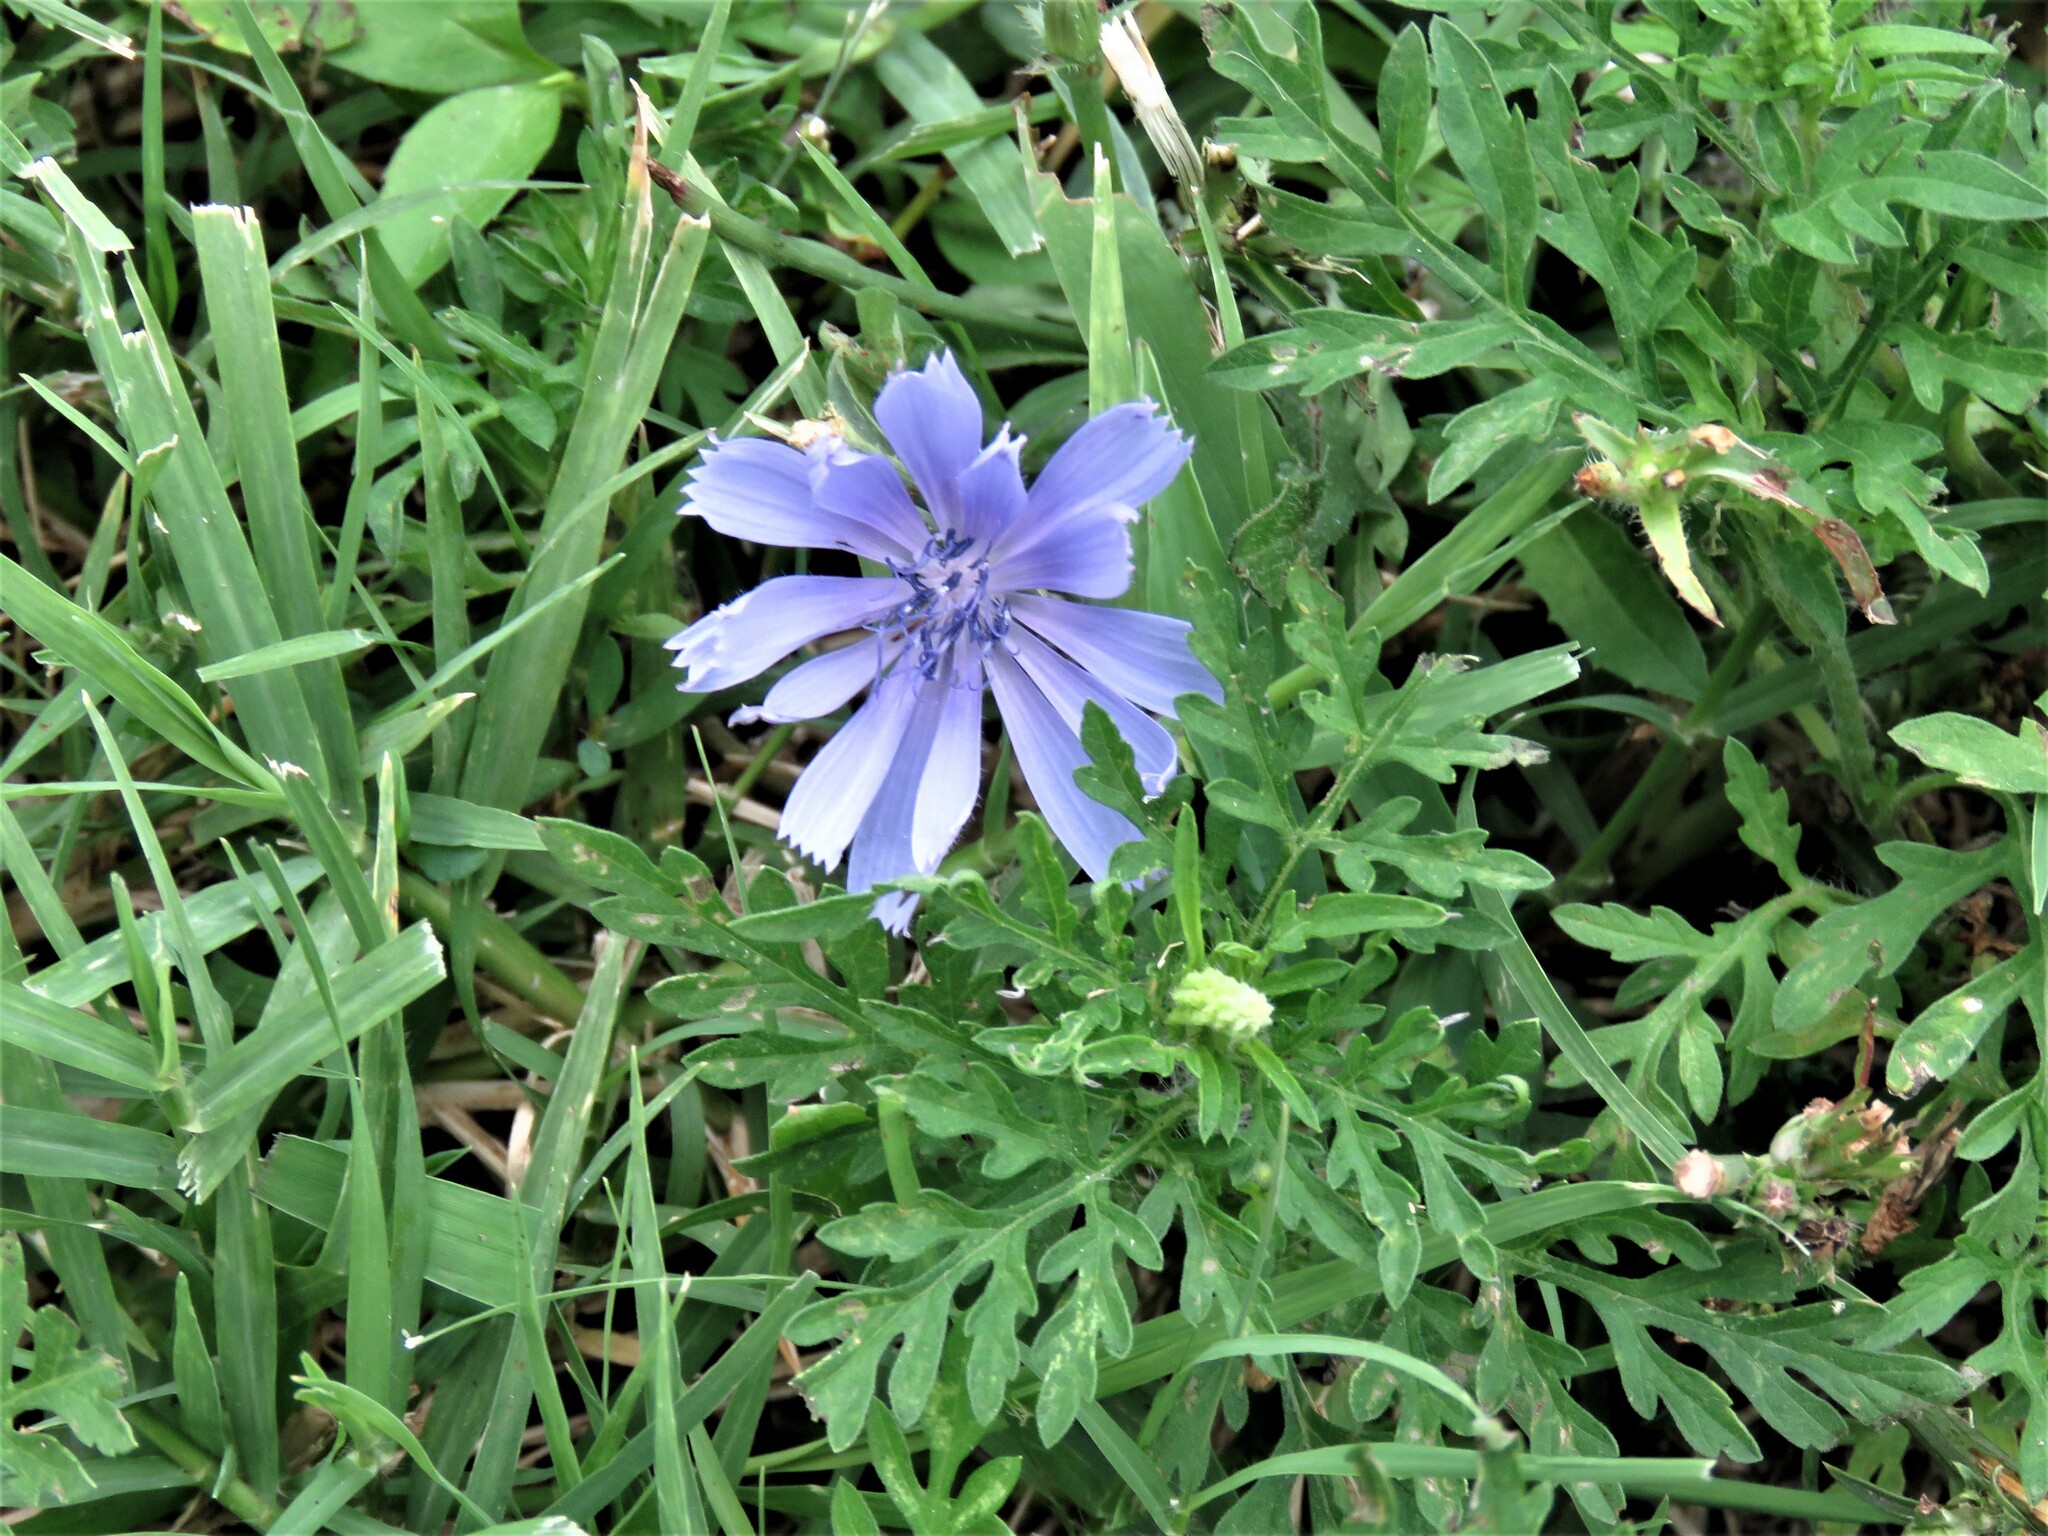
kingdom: Plantae
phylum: Tracheophyta
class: Magnoliopsida
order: Asterales
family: Asteraceae
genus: Cichorium
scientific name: Cichorium intybus
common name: Chicory
